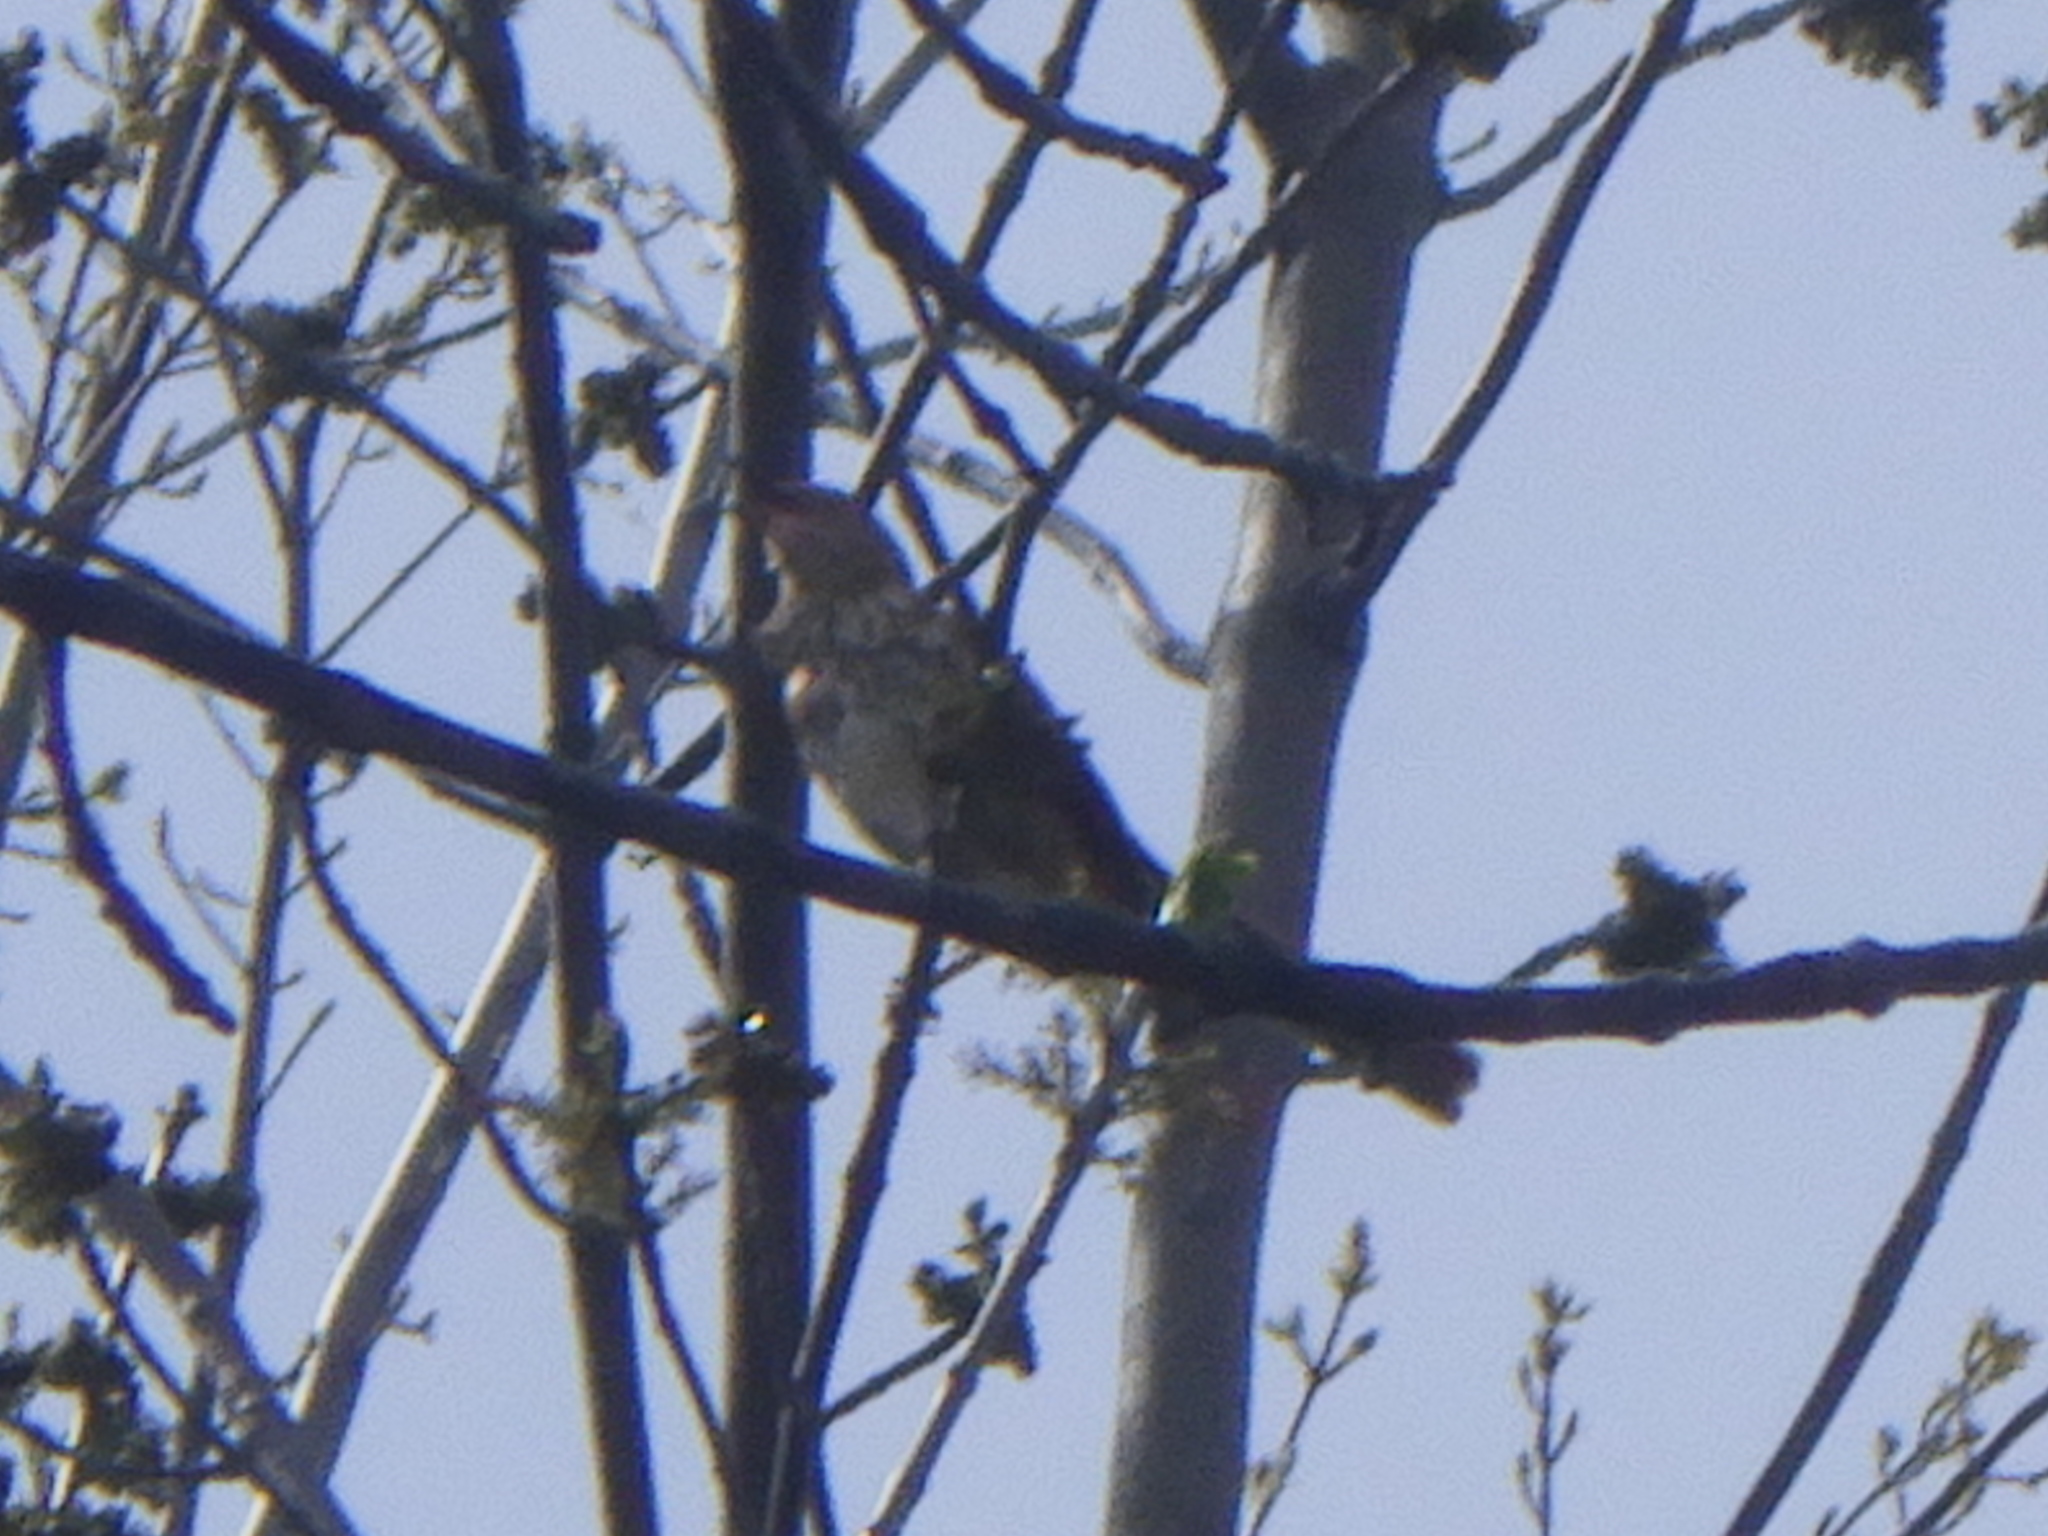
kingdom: Animalia
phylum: Chordata
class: Aves
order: Passeriformes
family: Mimidae
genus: Toxostoma
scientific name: Toxostoma rufum
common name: Brown thrasher
